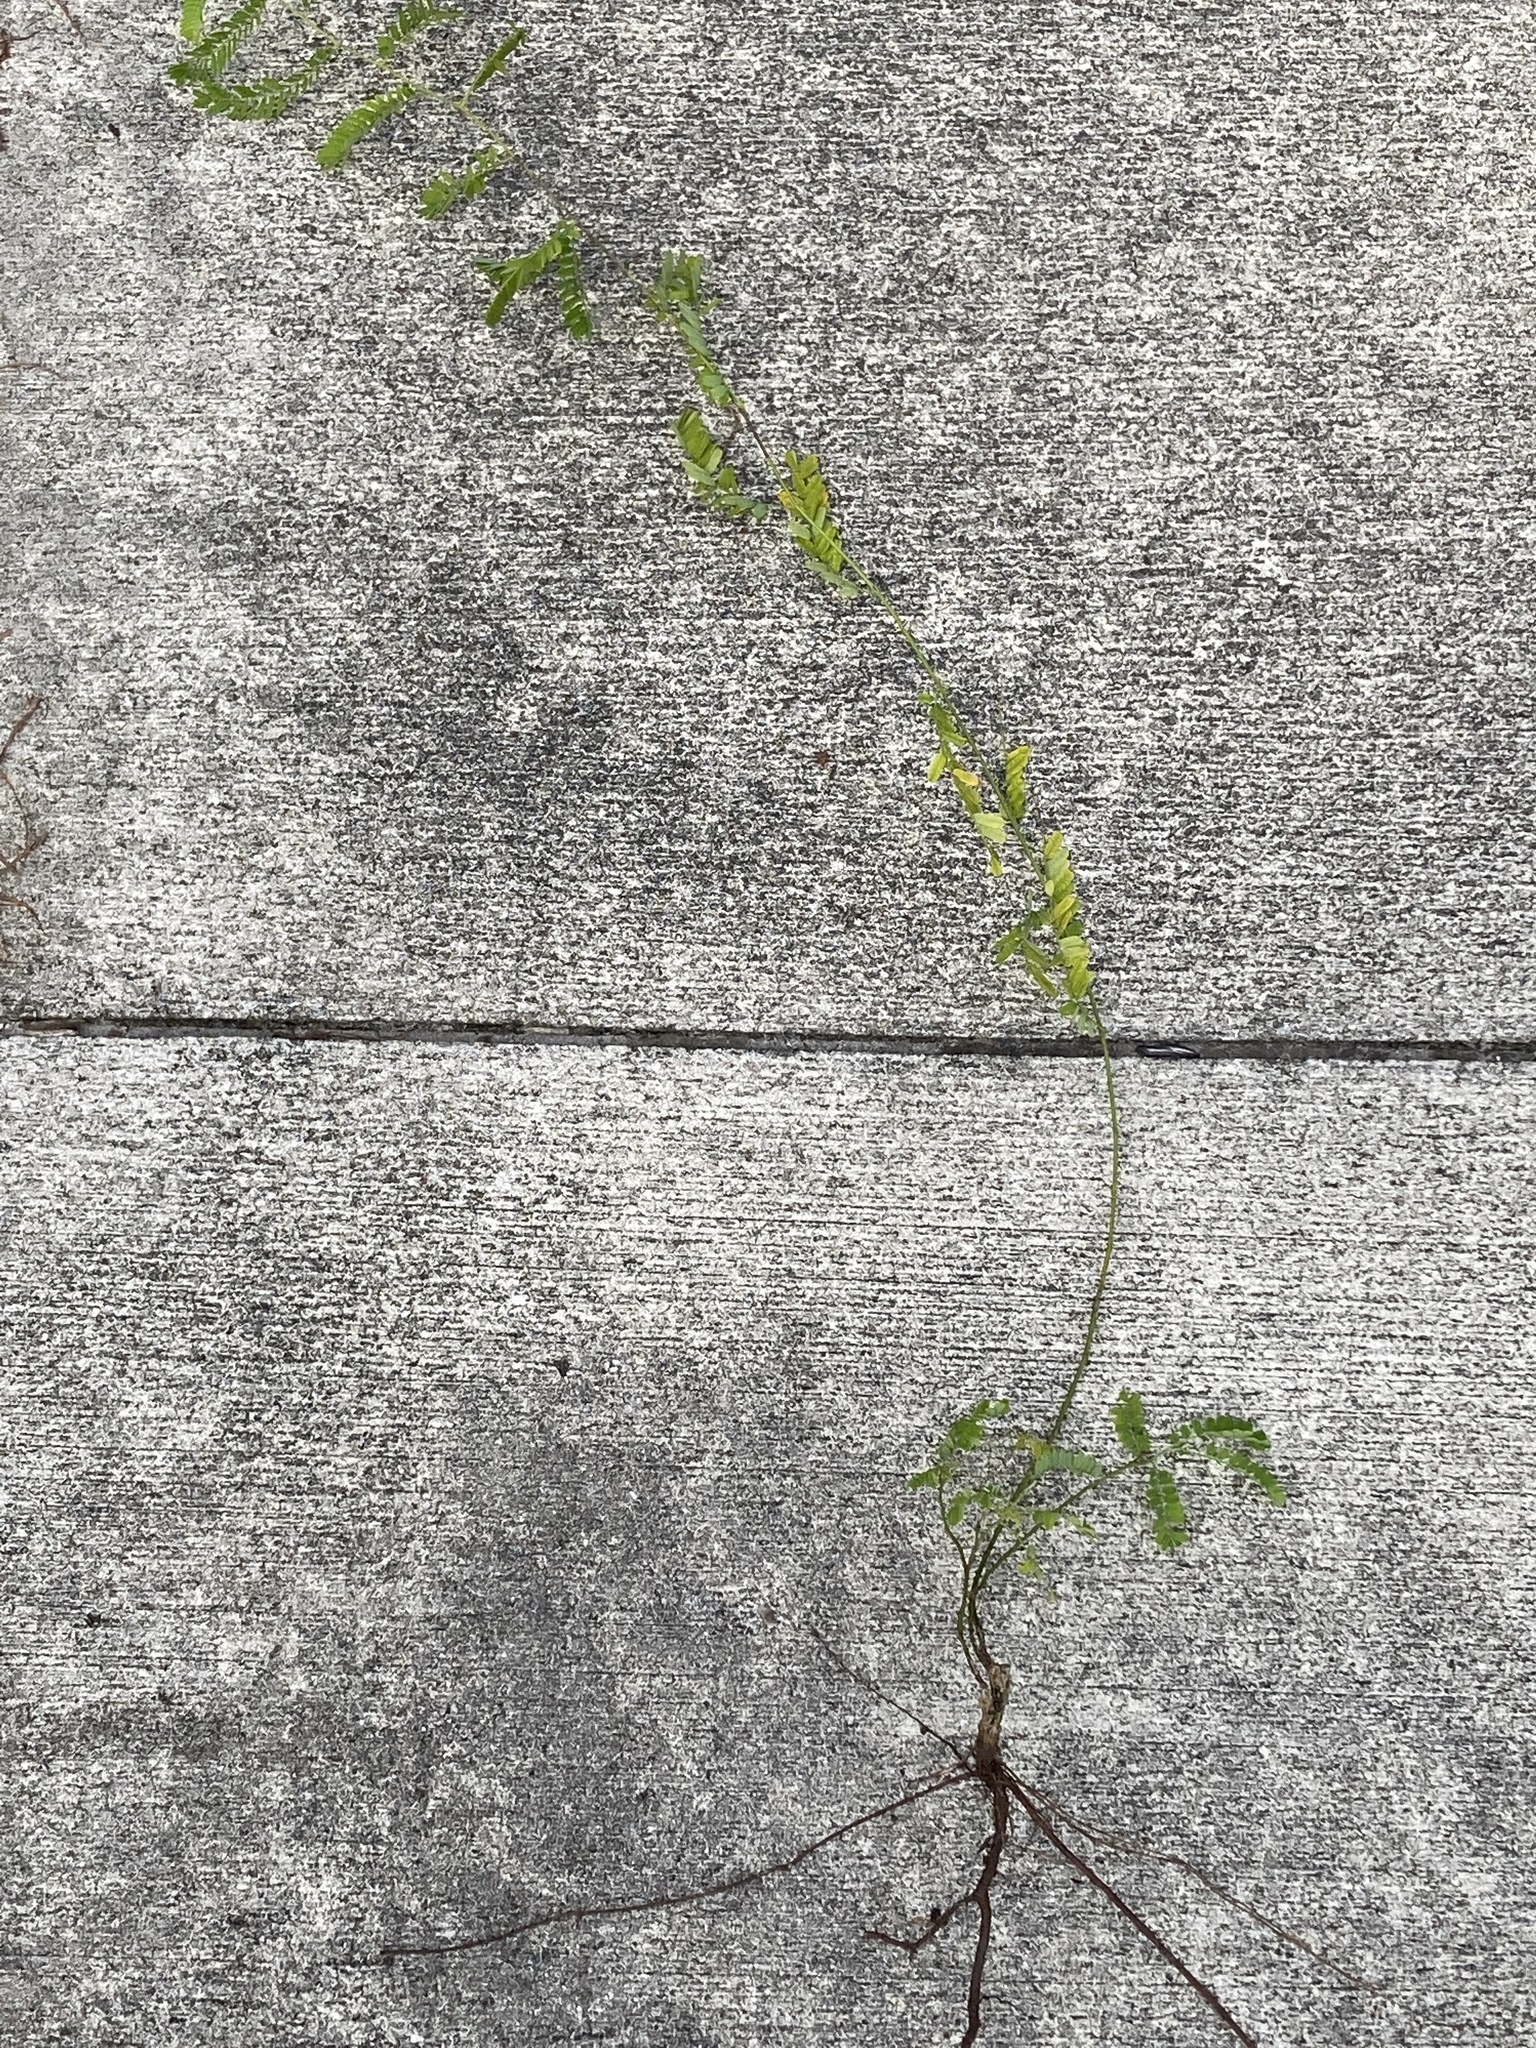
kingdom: Plantae
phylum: Tracheophyta
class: Magnoliopsida
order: Fabales
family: Fabaceae
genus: Abrus
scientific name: Abrus precatorius
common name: Rosarypea
